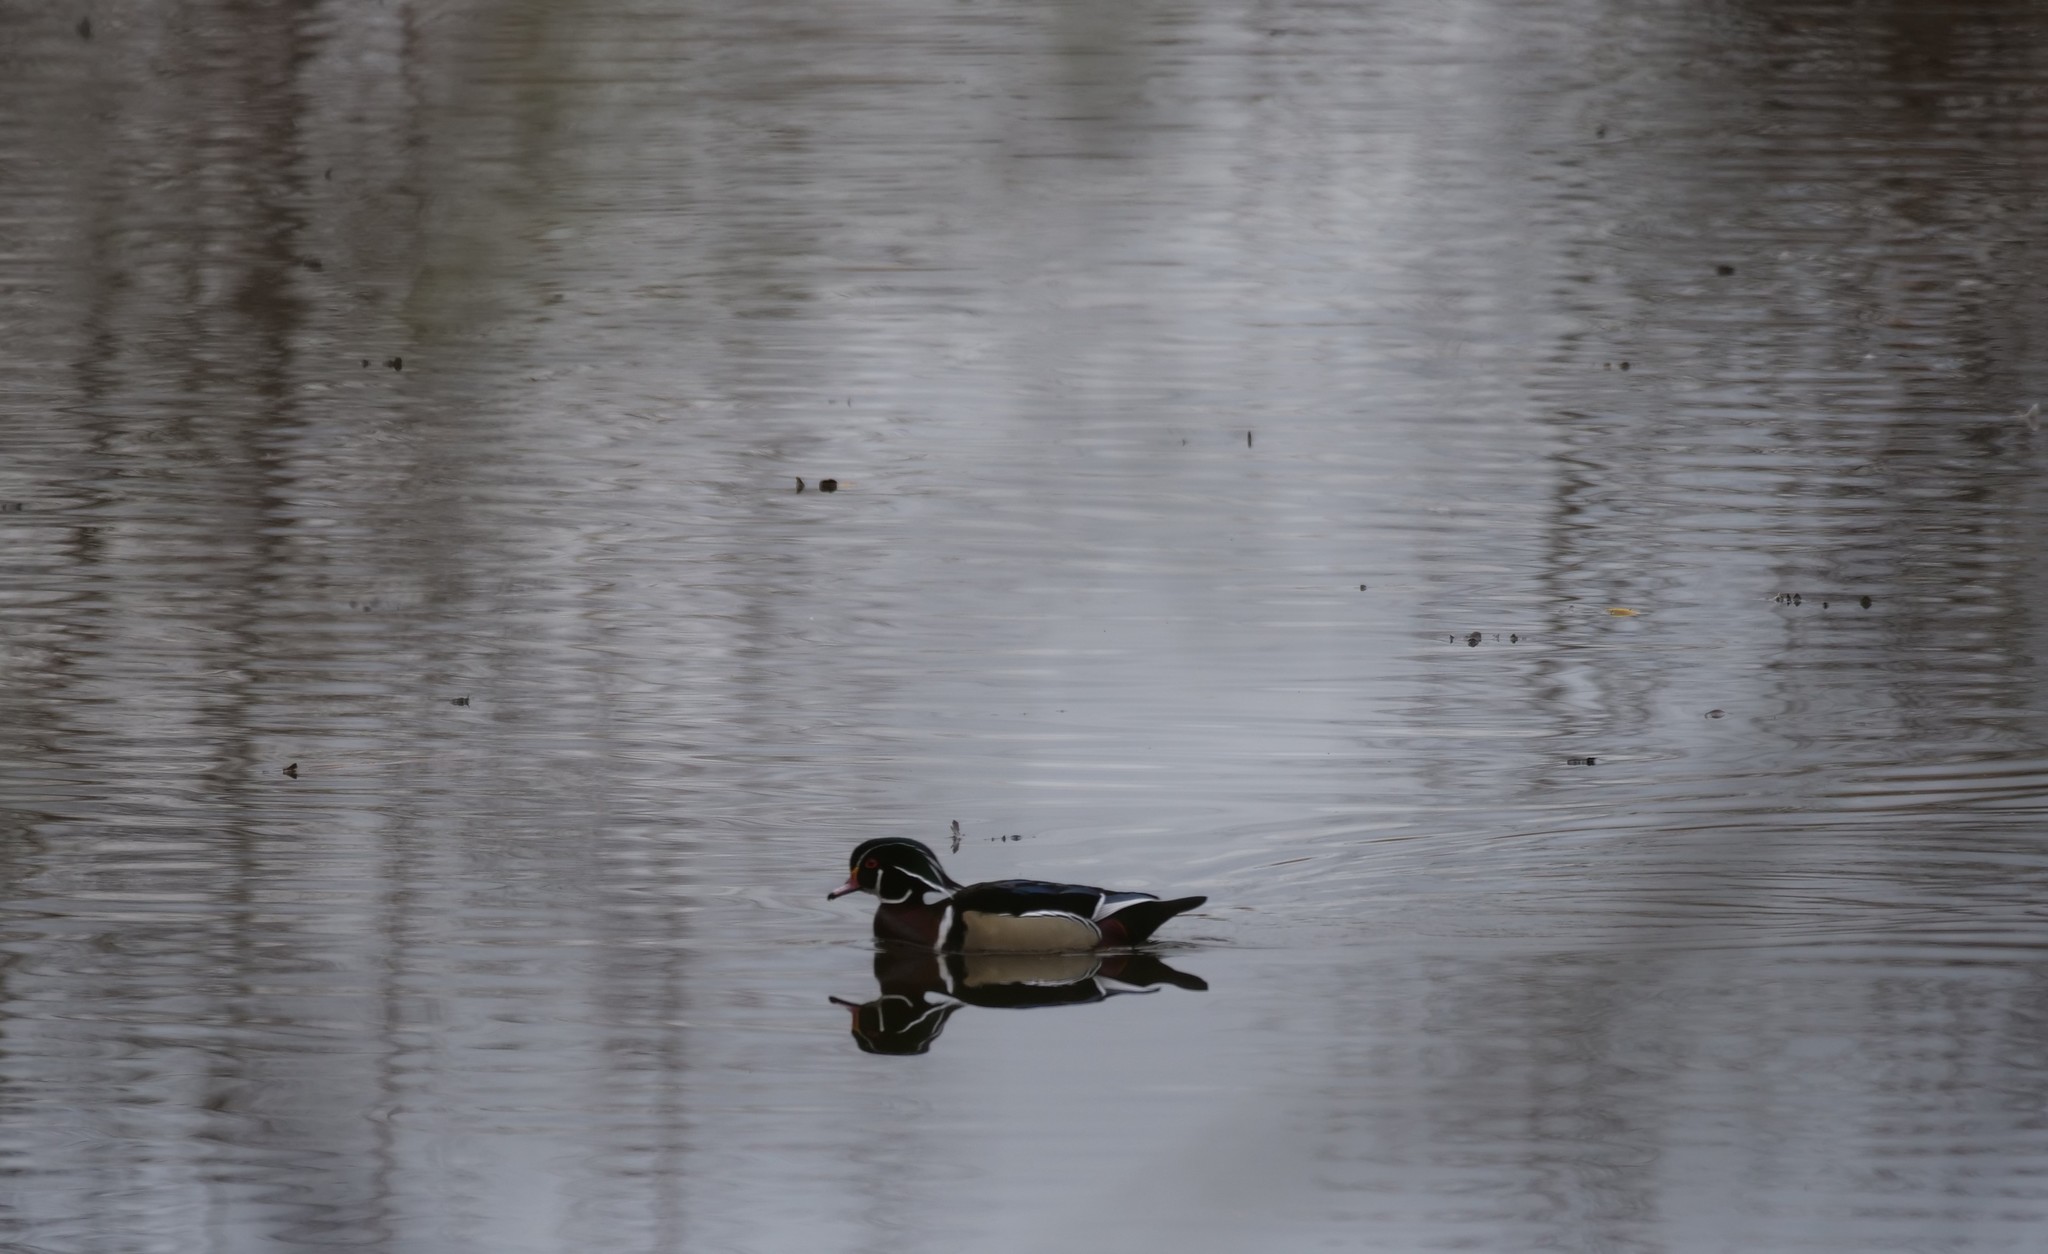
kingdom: Animalia
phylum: Chordata
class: Aves
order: Anseriformes
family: Anatidae
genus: Aix
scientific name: Aix sponsa
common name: Wood duck
